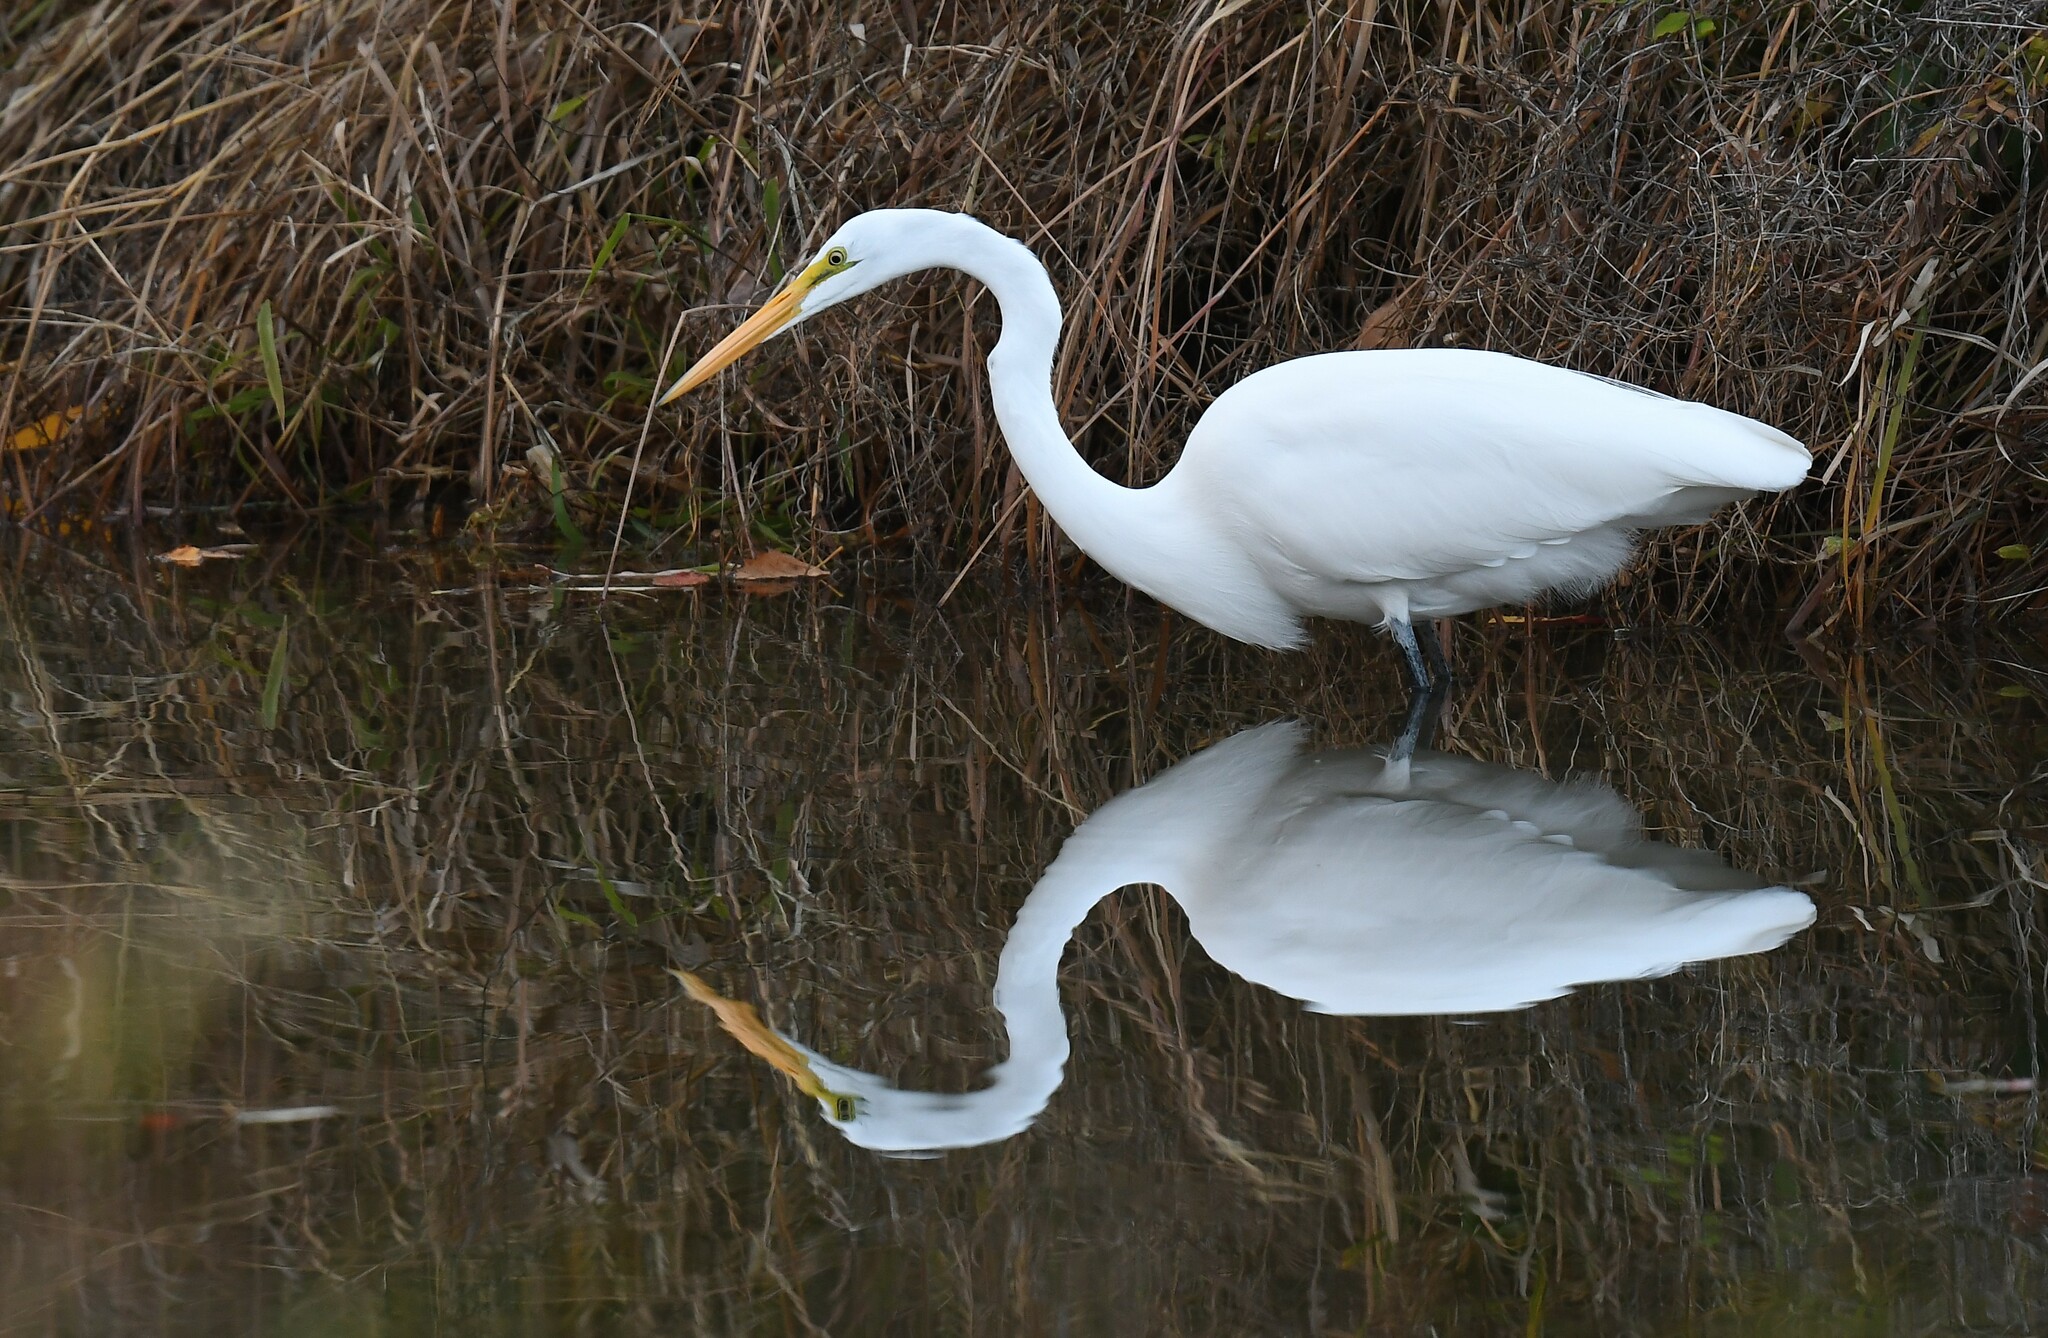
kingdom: Animalia
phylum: Chordata
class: Aves
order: Pelecaniformes
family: Ardeidae
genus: Ardea
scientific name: Ardea alba
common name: Great egret
